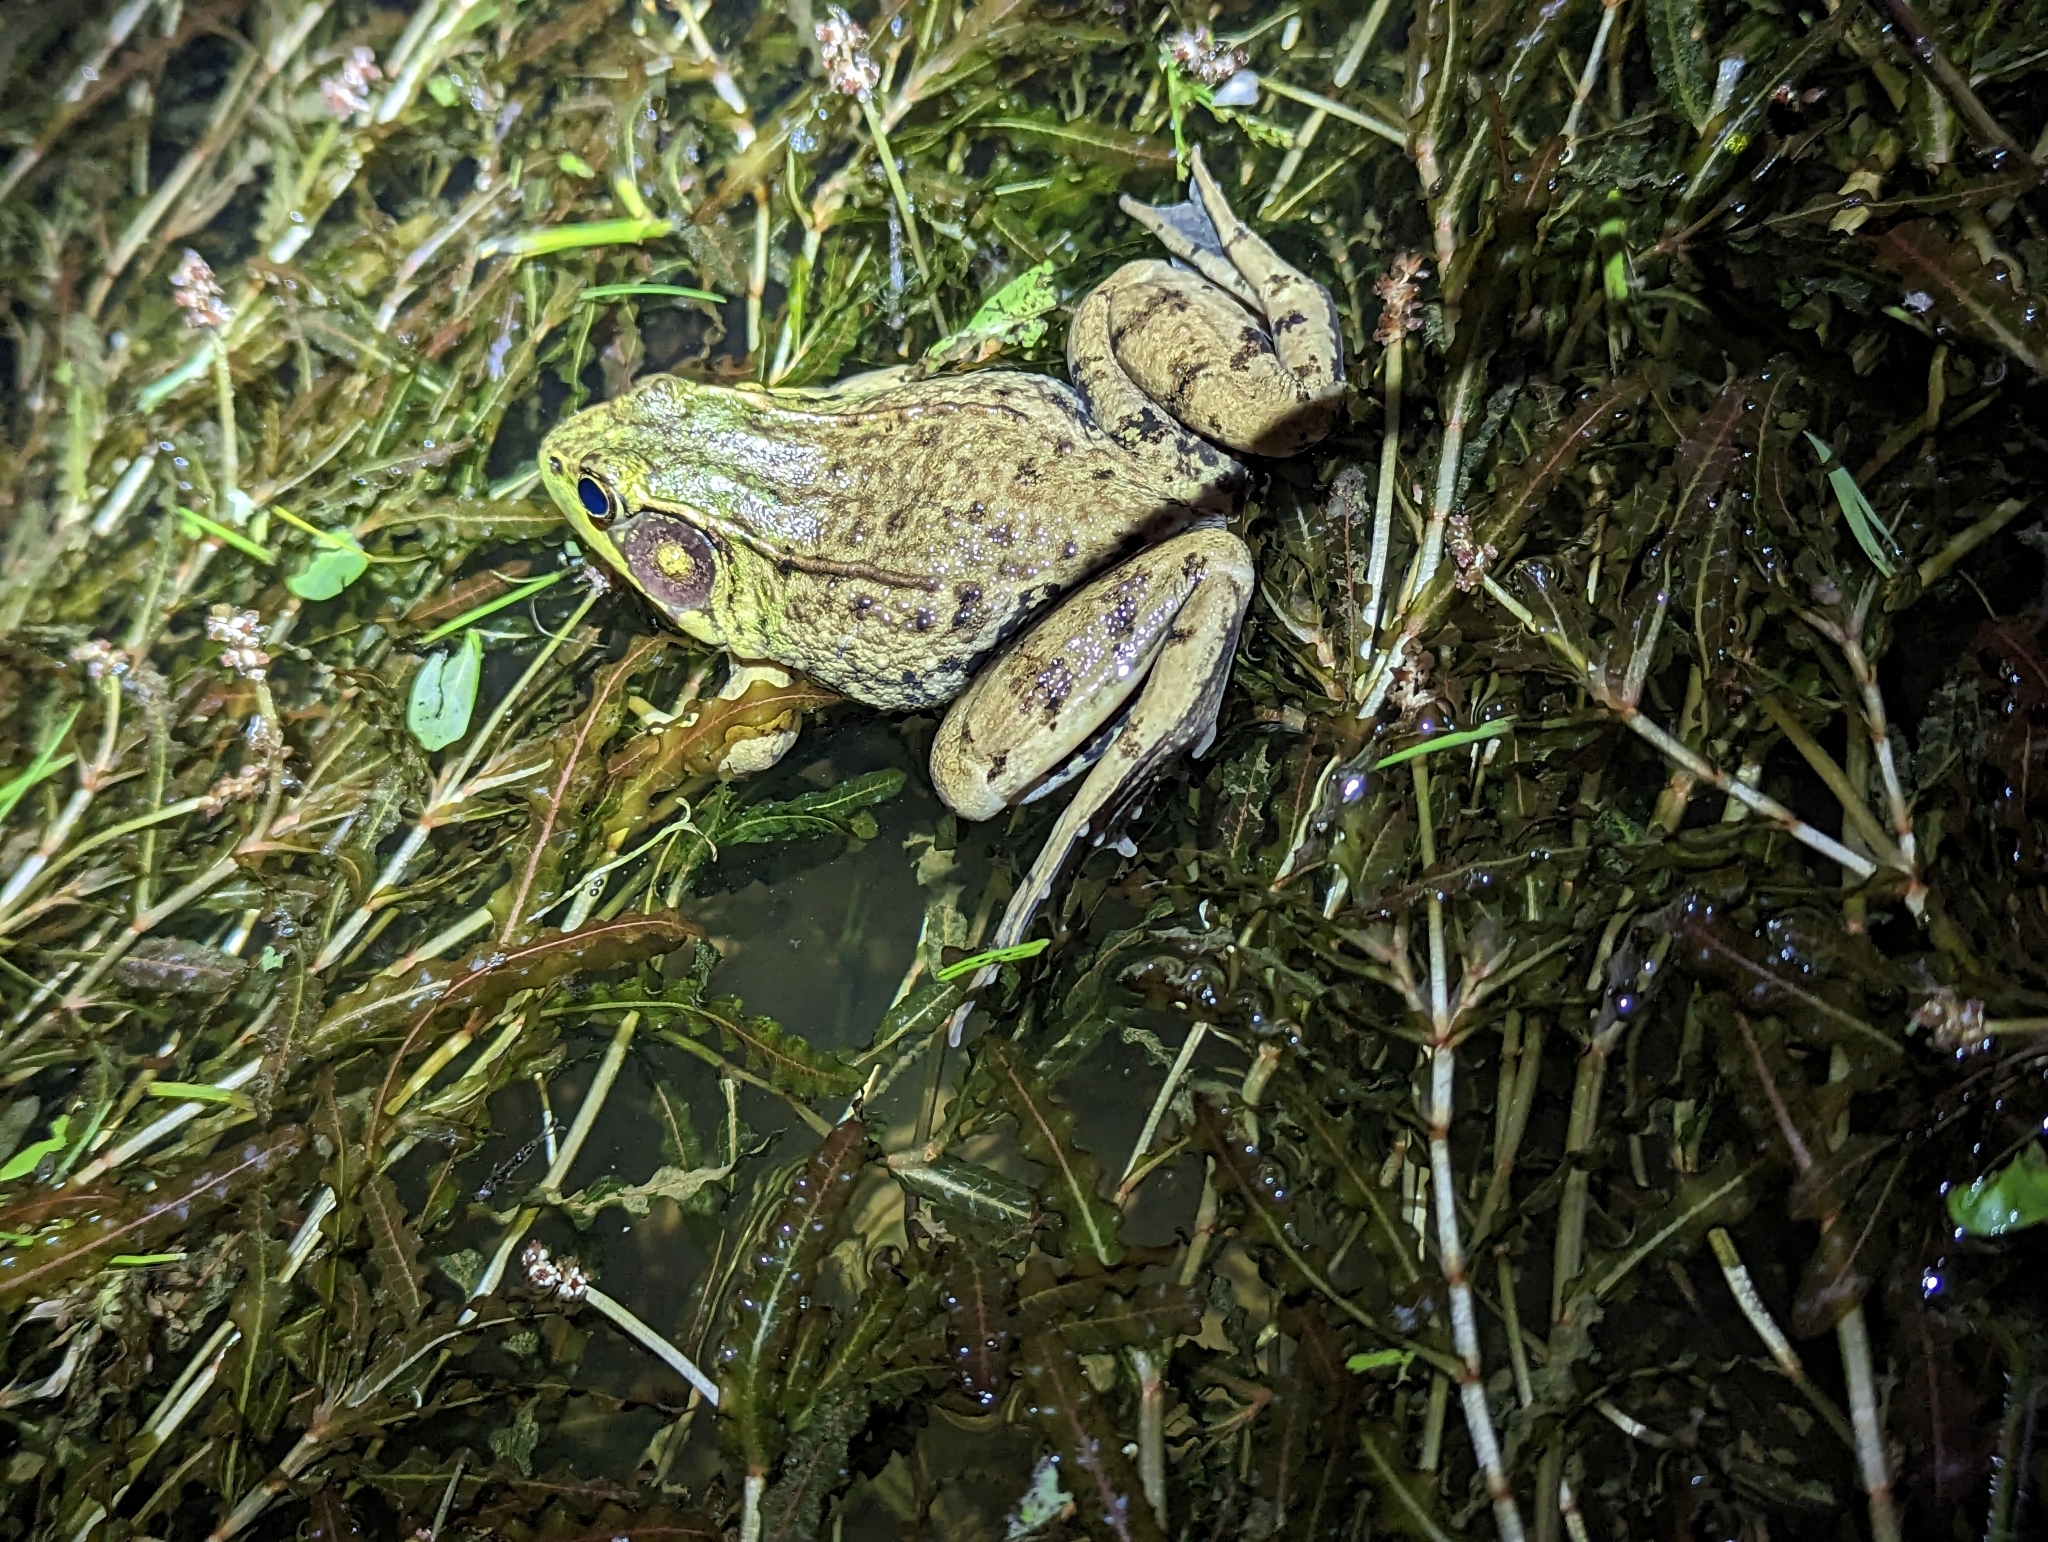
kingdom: Animalia
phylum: Chordata
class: Amphibia
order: Anura
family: Ranidae
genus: Lithobates
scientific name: Lithobates clamitans
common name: Green frog
